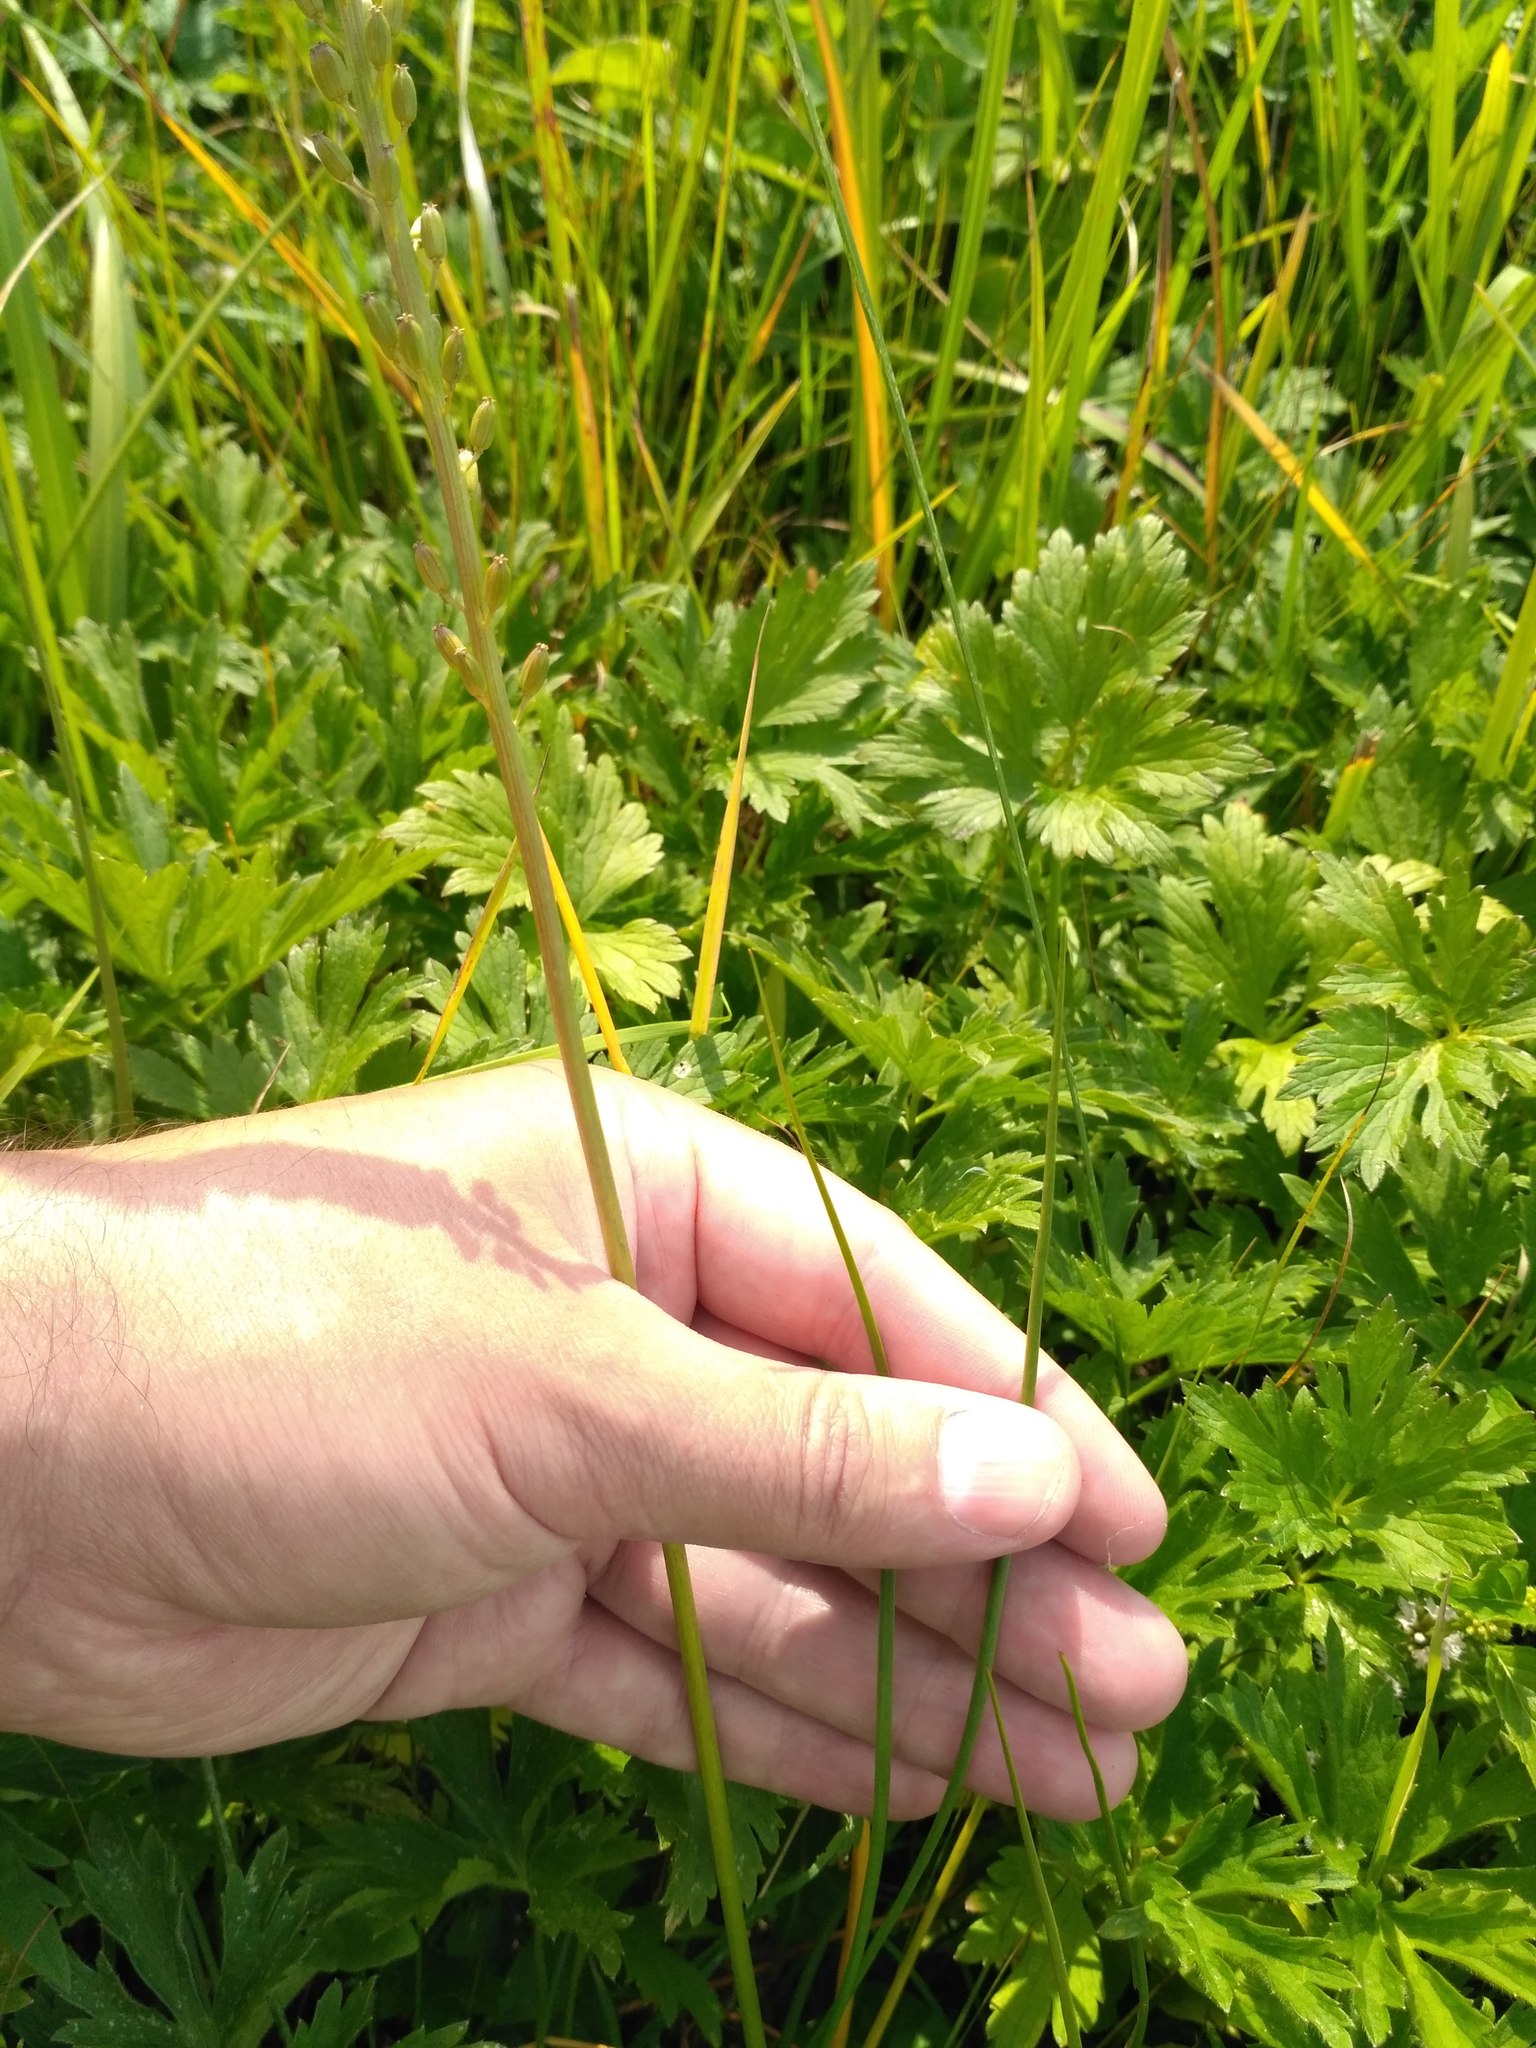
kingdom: Plantae
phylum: Tracheophyta
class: Liliopsida
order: Alismatales
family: Juncaginaceae
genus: Triglochin
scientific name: Triglochin maritima
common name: Sea arrowgrass
